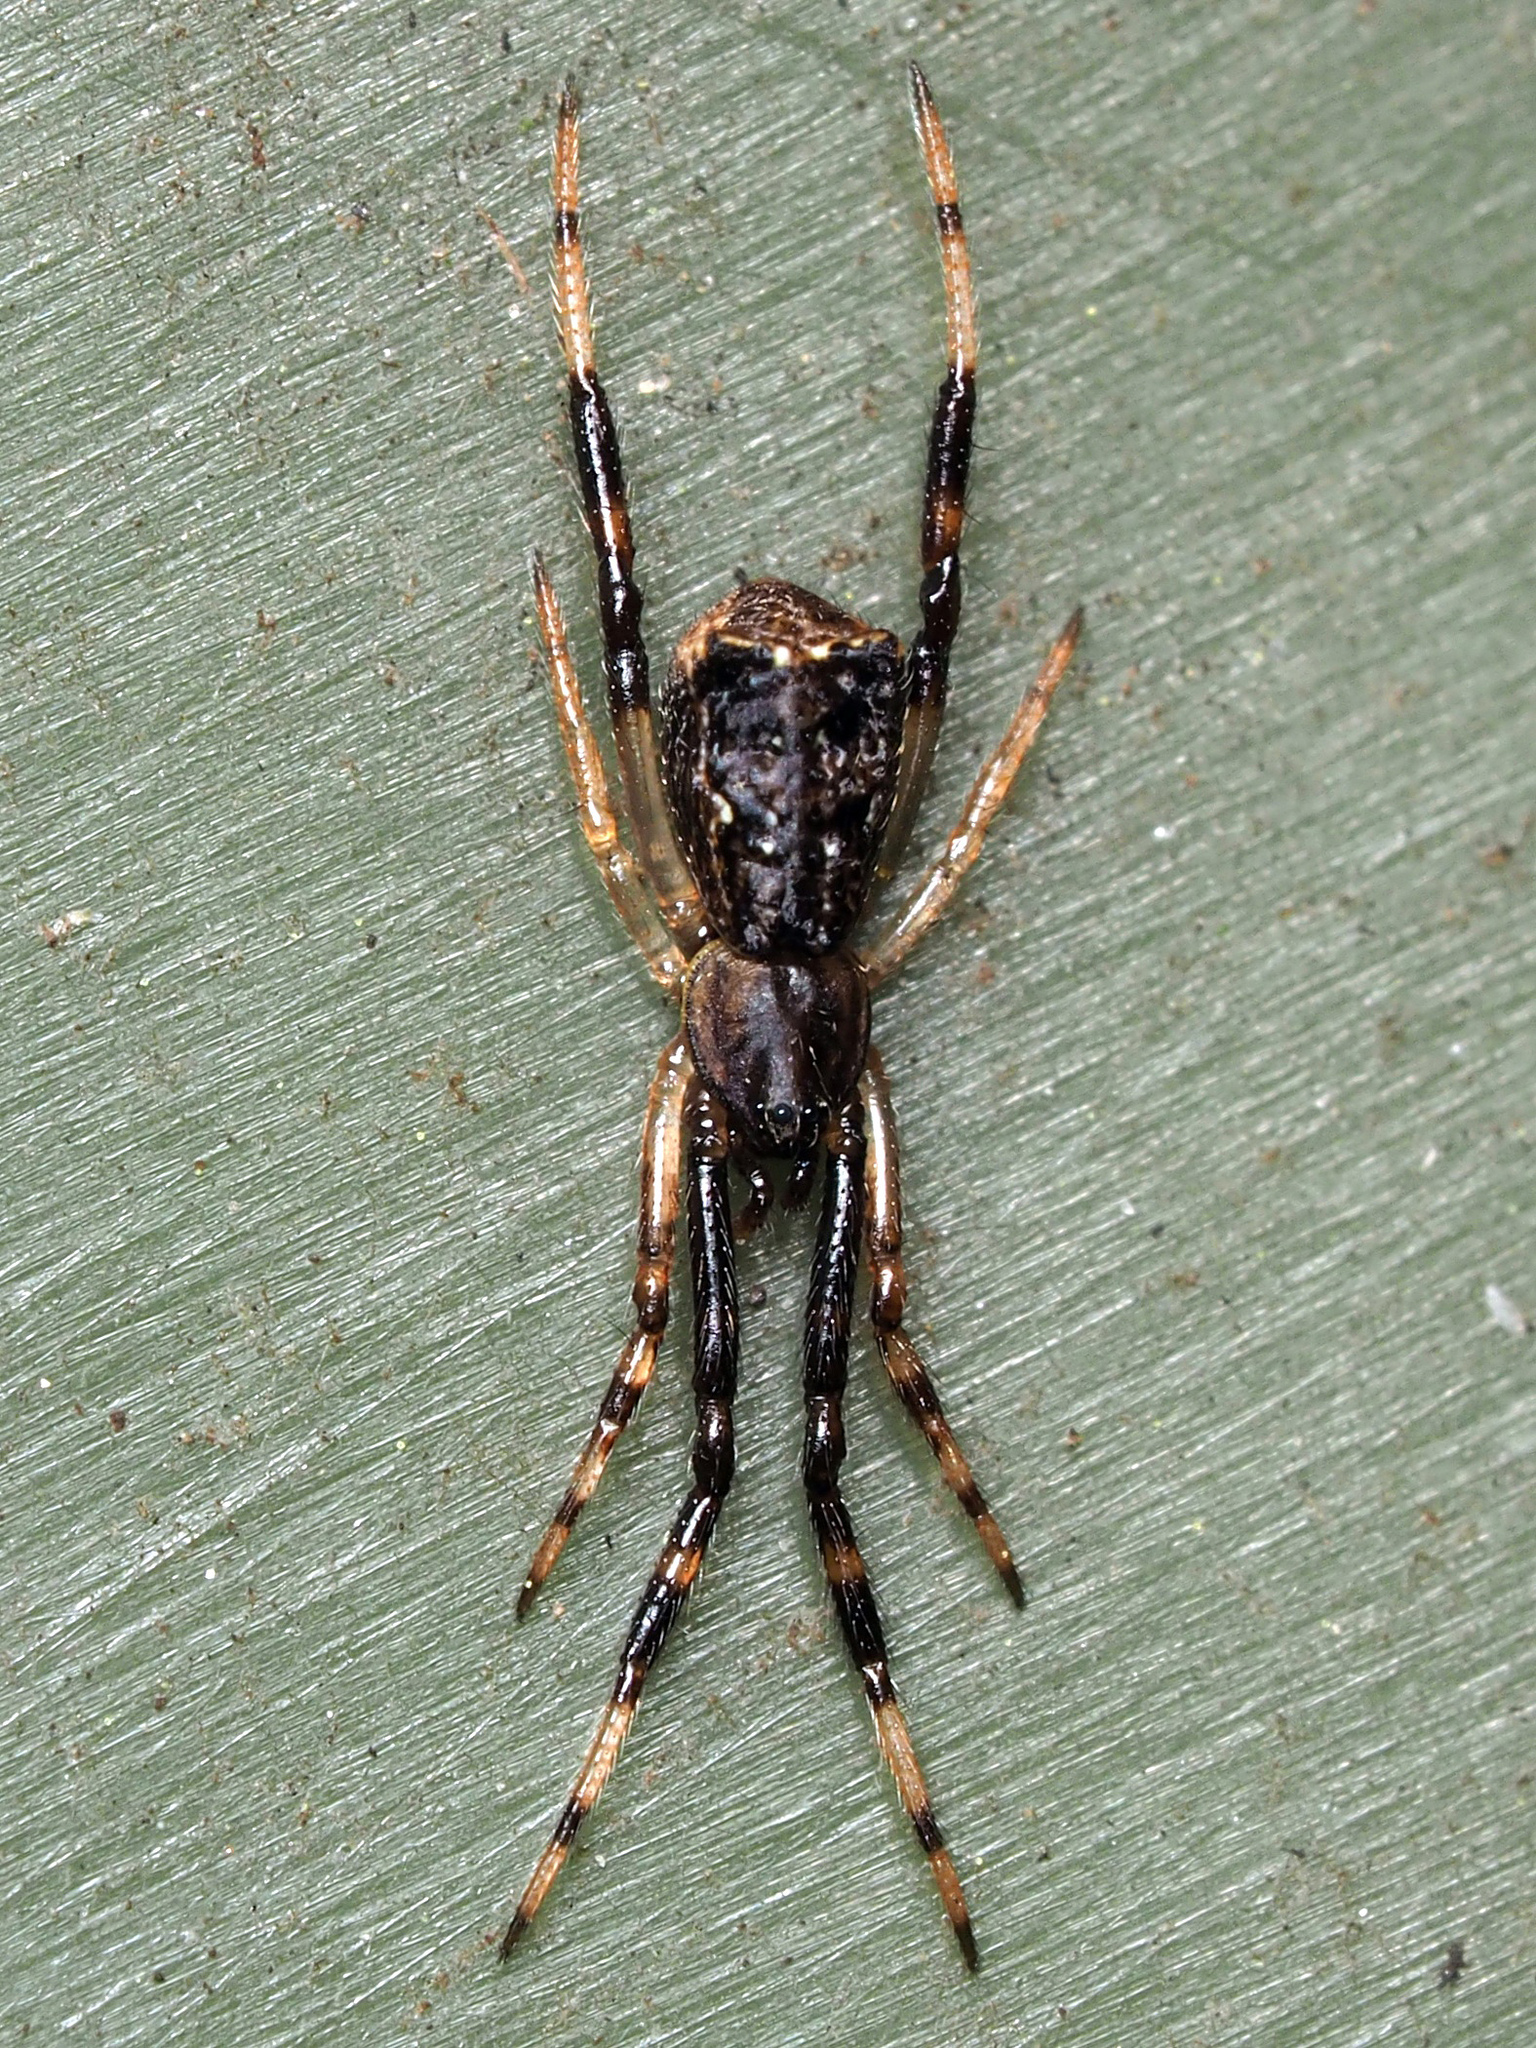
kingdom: Animalia
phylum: Arthropoda
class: Arachnida
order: Araneae
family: Theridiidae
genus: Episinus
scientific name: Episinus angulatus
